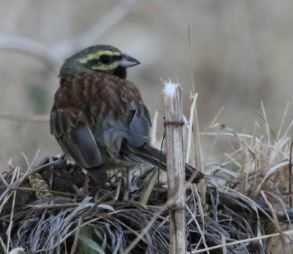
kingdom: Animalia
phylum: Chordata
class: Aves
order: Passeriformes
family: Emberizidae
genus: Emberiza
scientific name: Emberiza cirlus
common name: Cirl bunting
